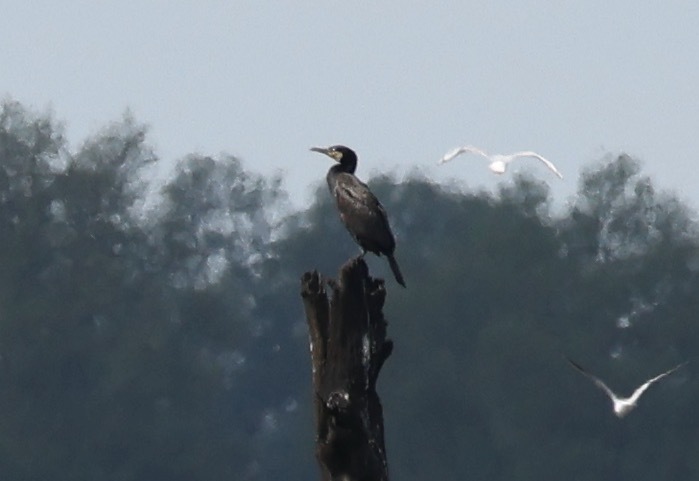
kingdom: Animalia
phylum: Chordata
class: Aves
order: Suliformes
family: Phalacrocoracidae
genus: Phalacrocorax
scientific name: Phalacrocorax carbo
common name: Great cormorant
